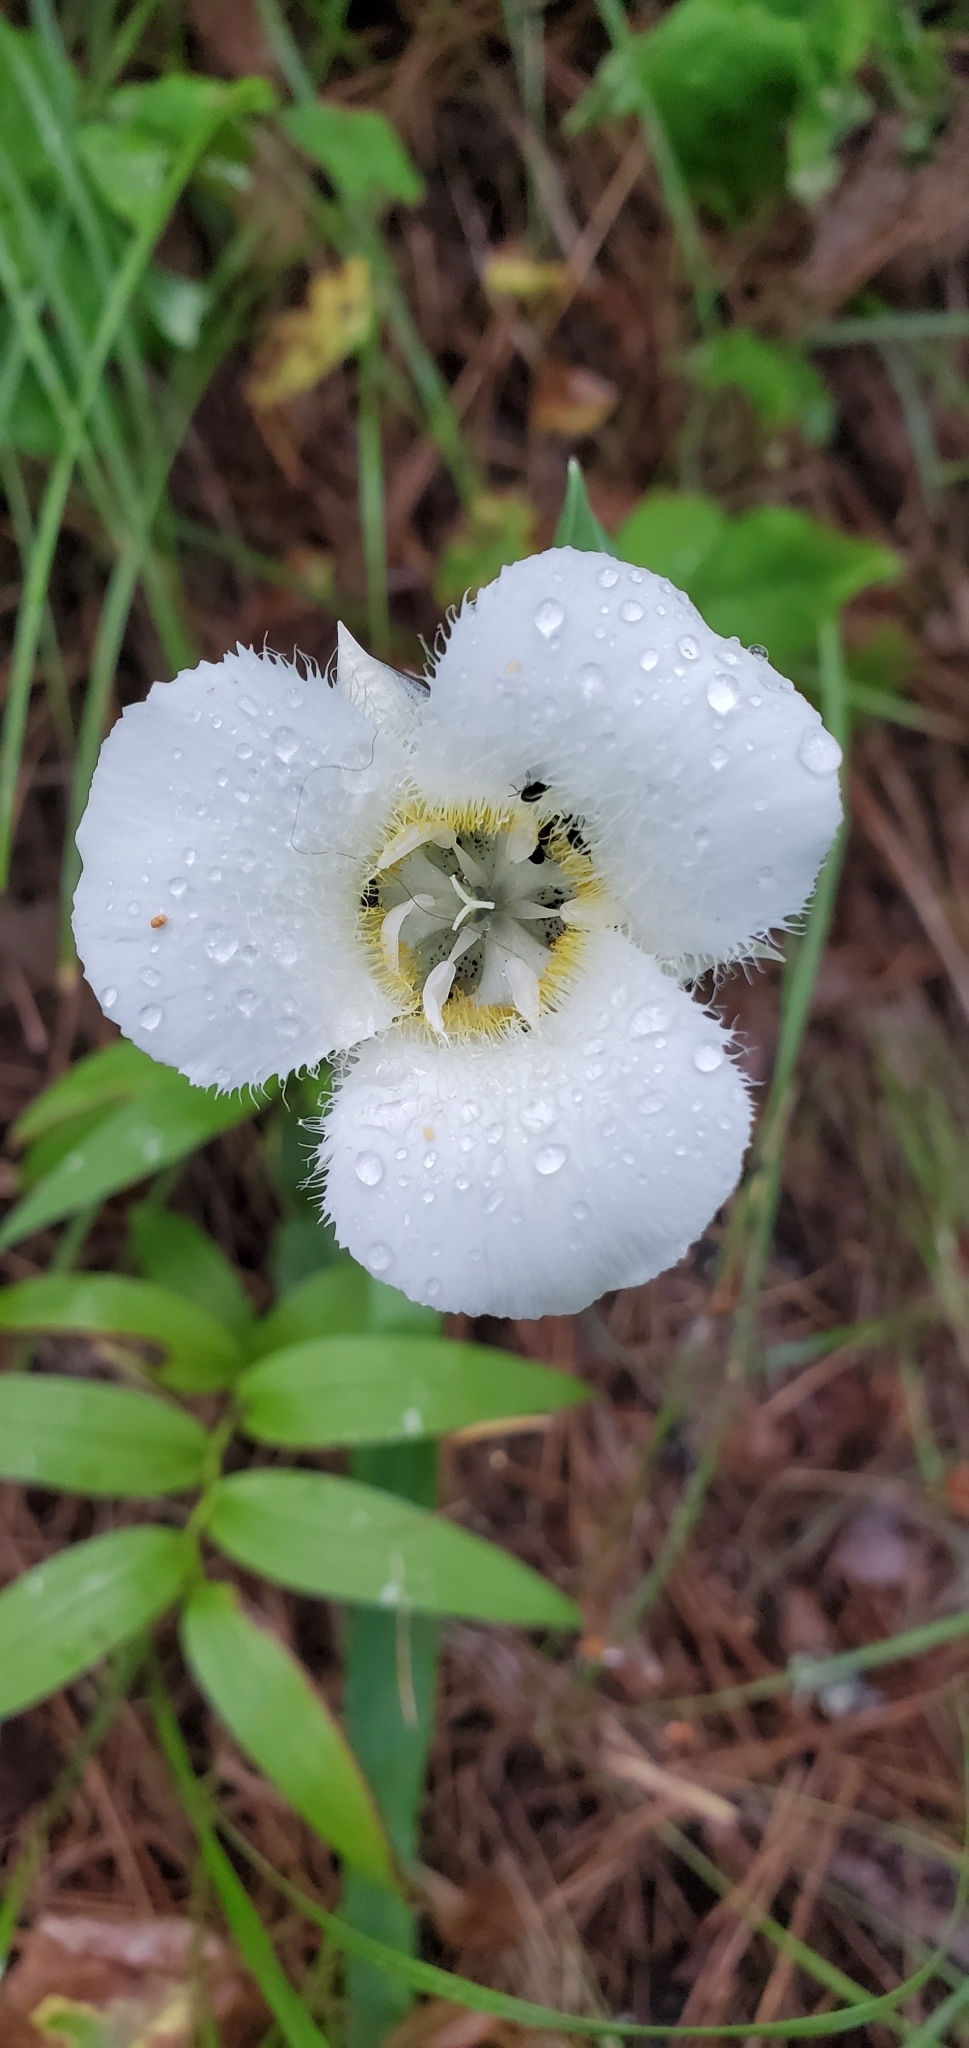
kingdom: Plantae
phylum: Tracheophyta
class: Liliopsida
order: Liliales
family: Liliaceae
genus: Calochortus
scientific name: Calochortus apiculatus
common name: Baker's mariposa lily
